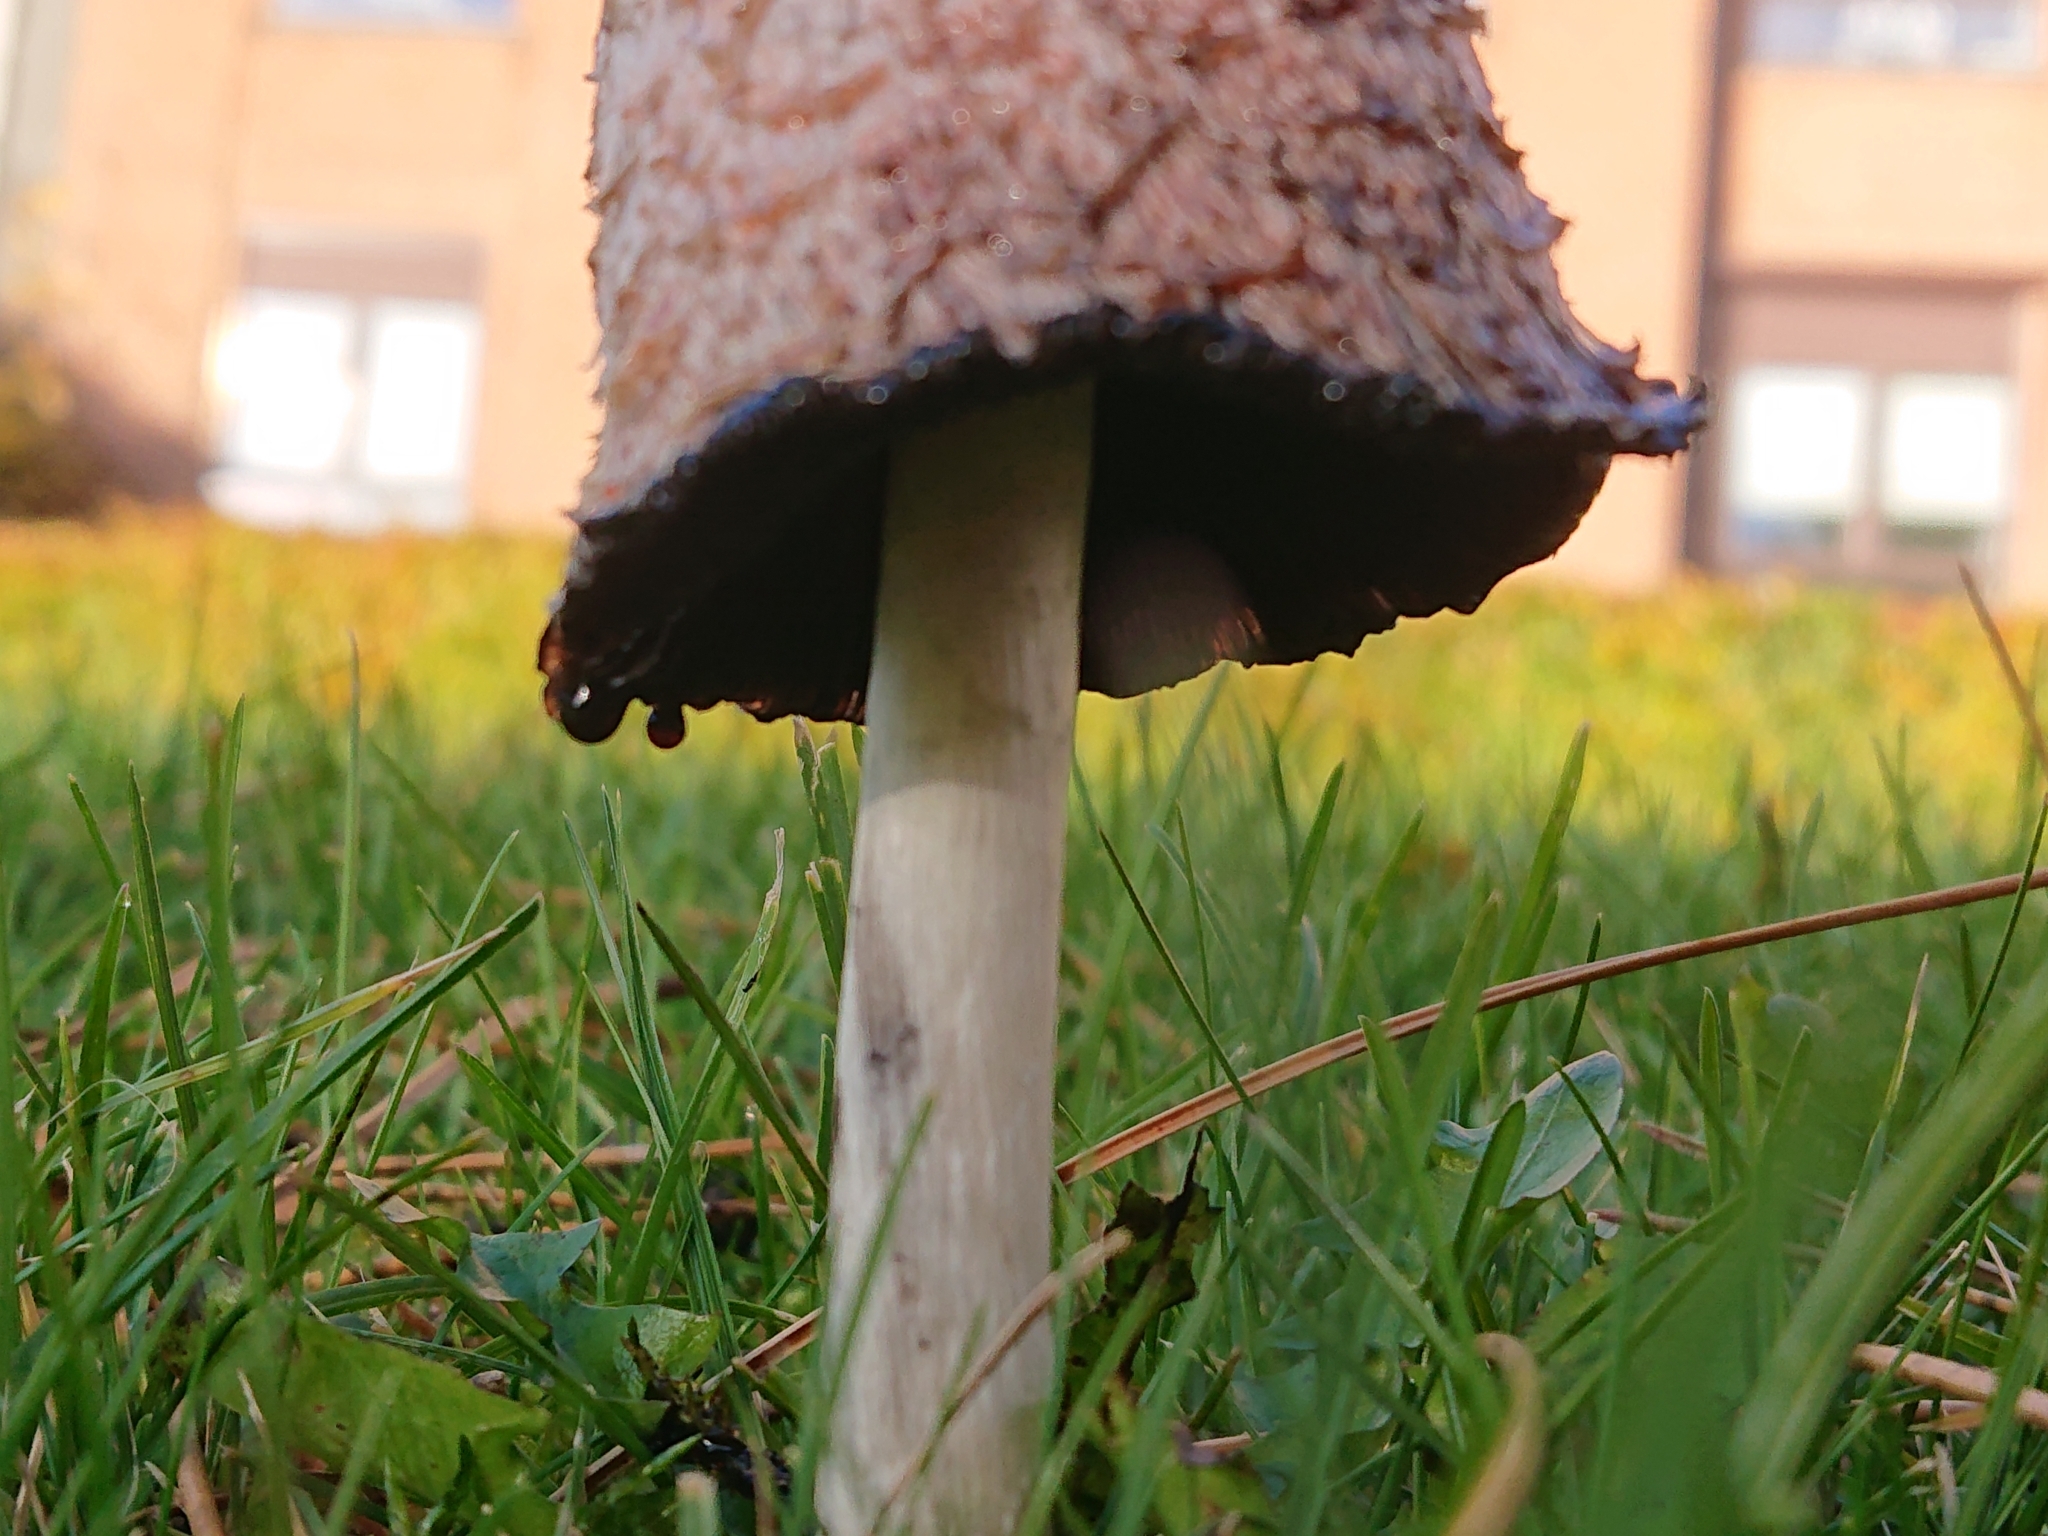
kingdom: Fungi
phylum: Basidiomycota
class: Agaricomycetes
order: Agaricales
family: Agaricaceae
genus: Coprinus
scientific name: Coprinus comatus
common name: Lawyer's wig
